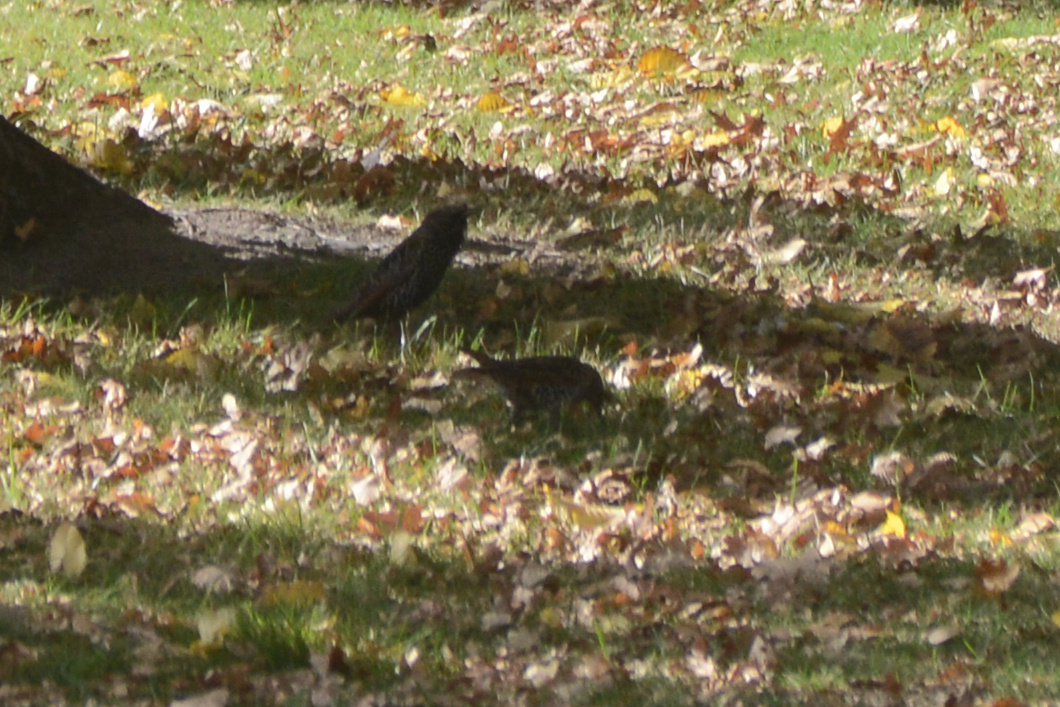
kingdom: Animalia
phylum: Chordata
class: Aves
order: Passeriformes
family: Sturnidae
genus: Sturnus
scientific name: Sturnus vulgaris
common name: Common starling
